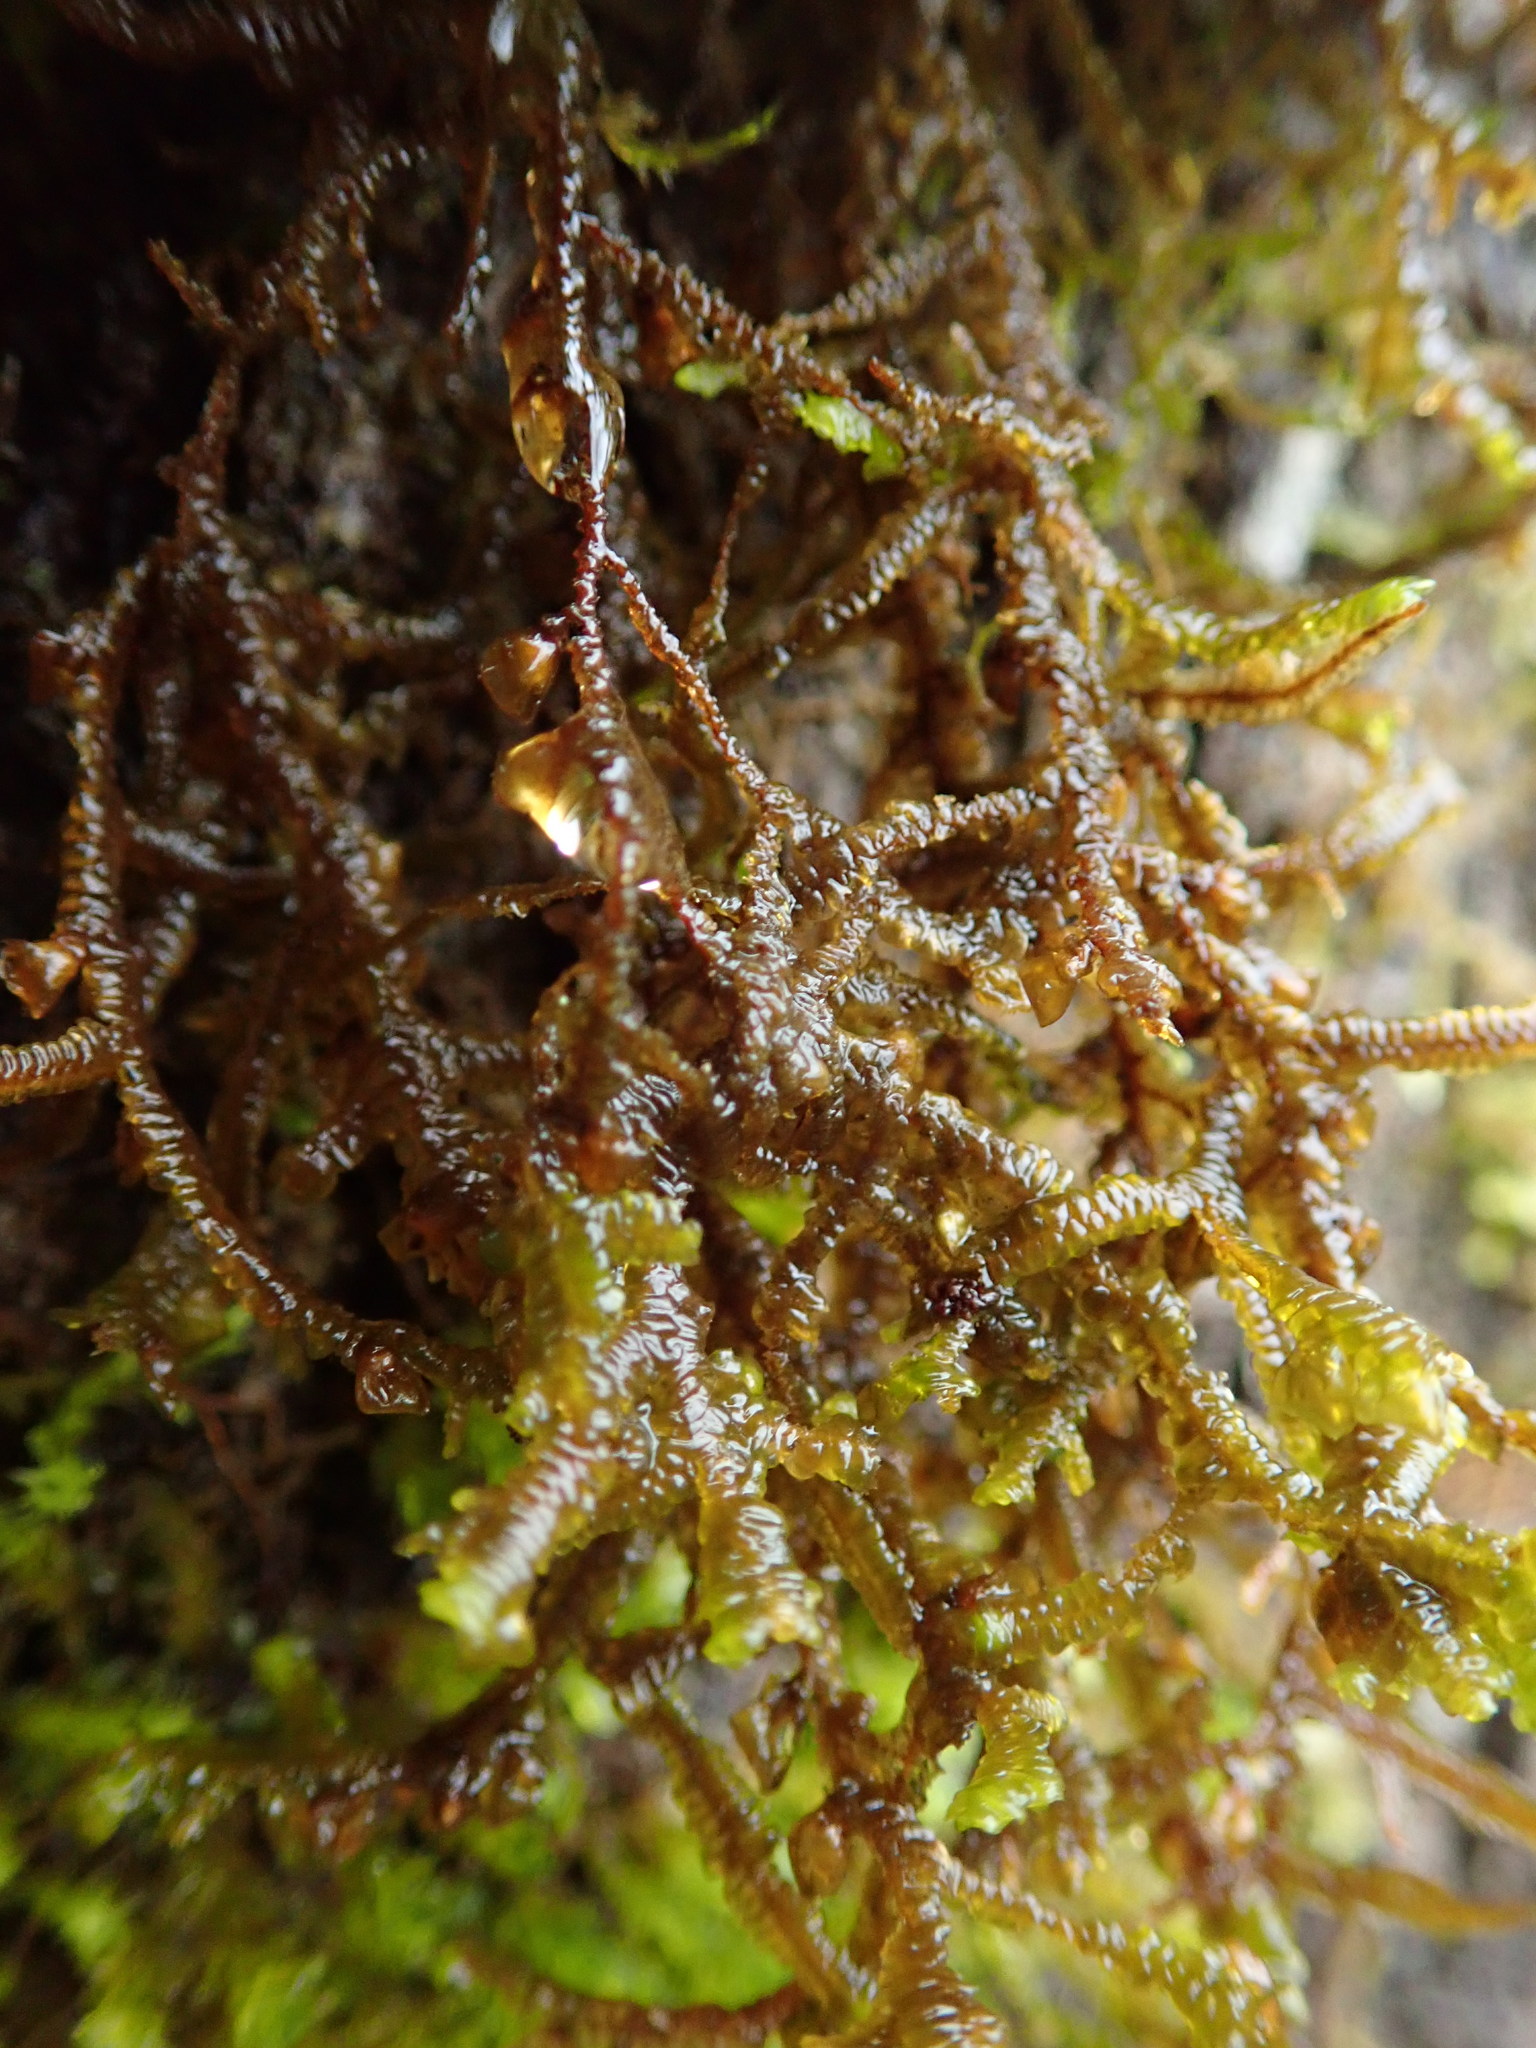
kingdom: Plantae
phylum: Marchantiophyta
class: Jungermanniopsida
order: Porellales
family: Porellaceae
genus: Porella
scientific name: Porella navicularis
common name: Tree ruffle liverwort
